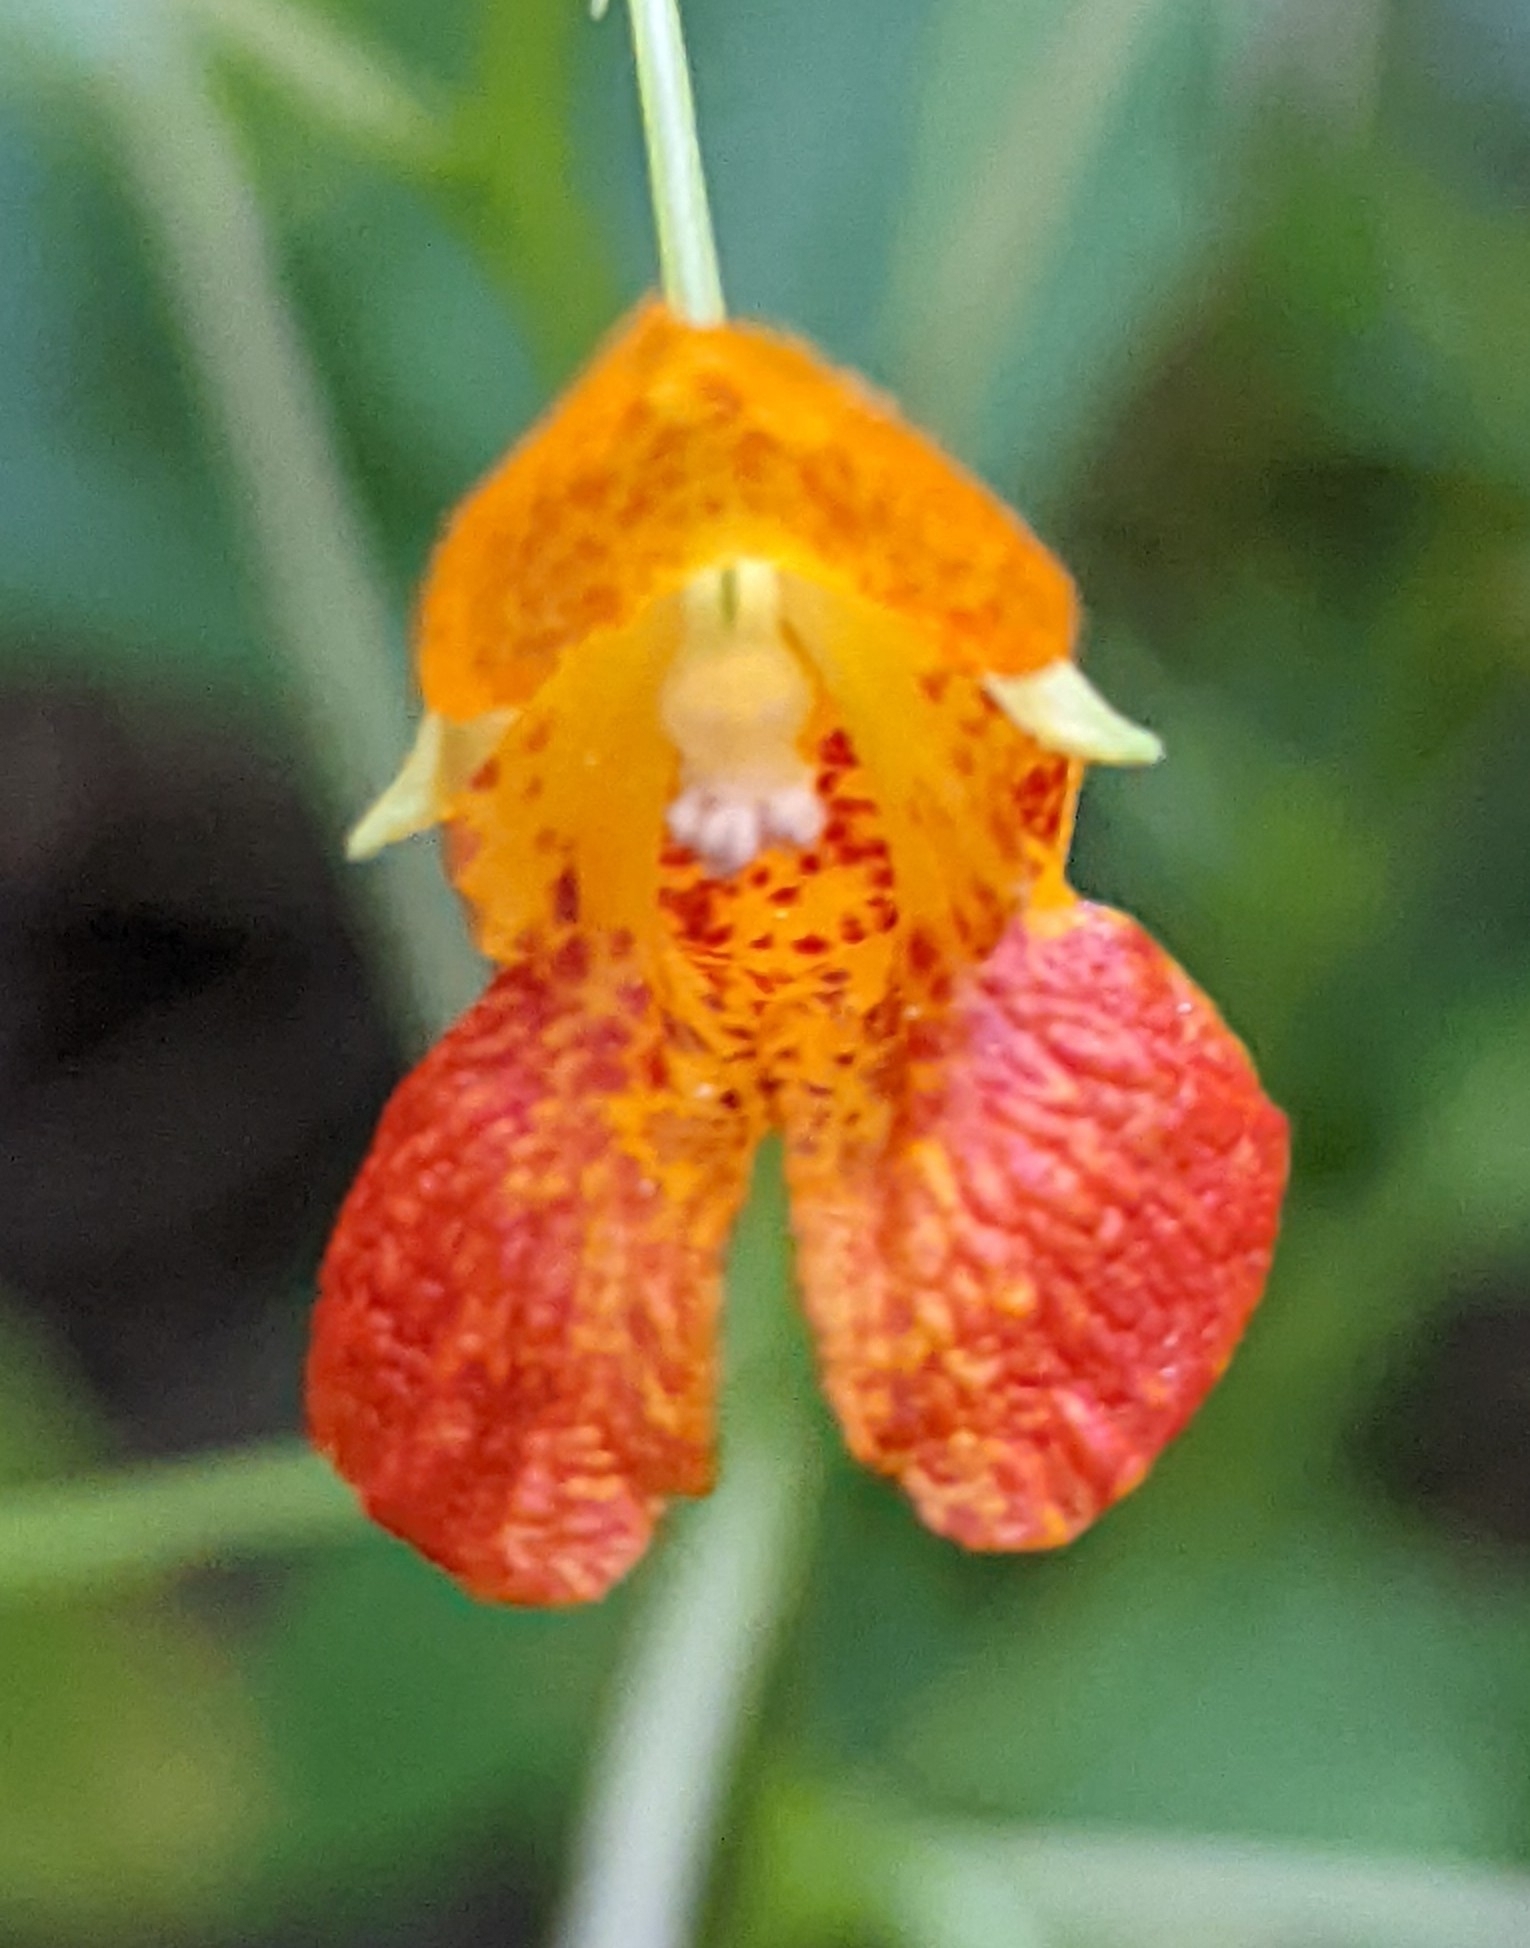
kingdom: Plantae
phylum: Tracheophyta
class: Magnoliopsida
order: Ericales
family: Balsaminaceae
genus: Impatiens
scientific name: Impatiens capensis
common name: Orange balsam
